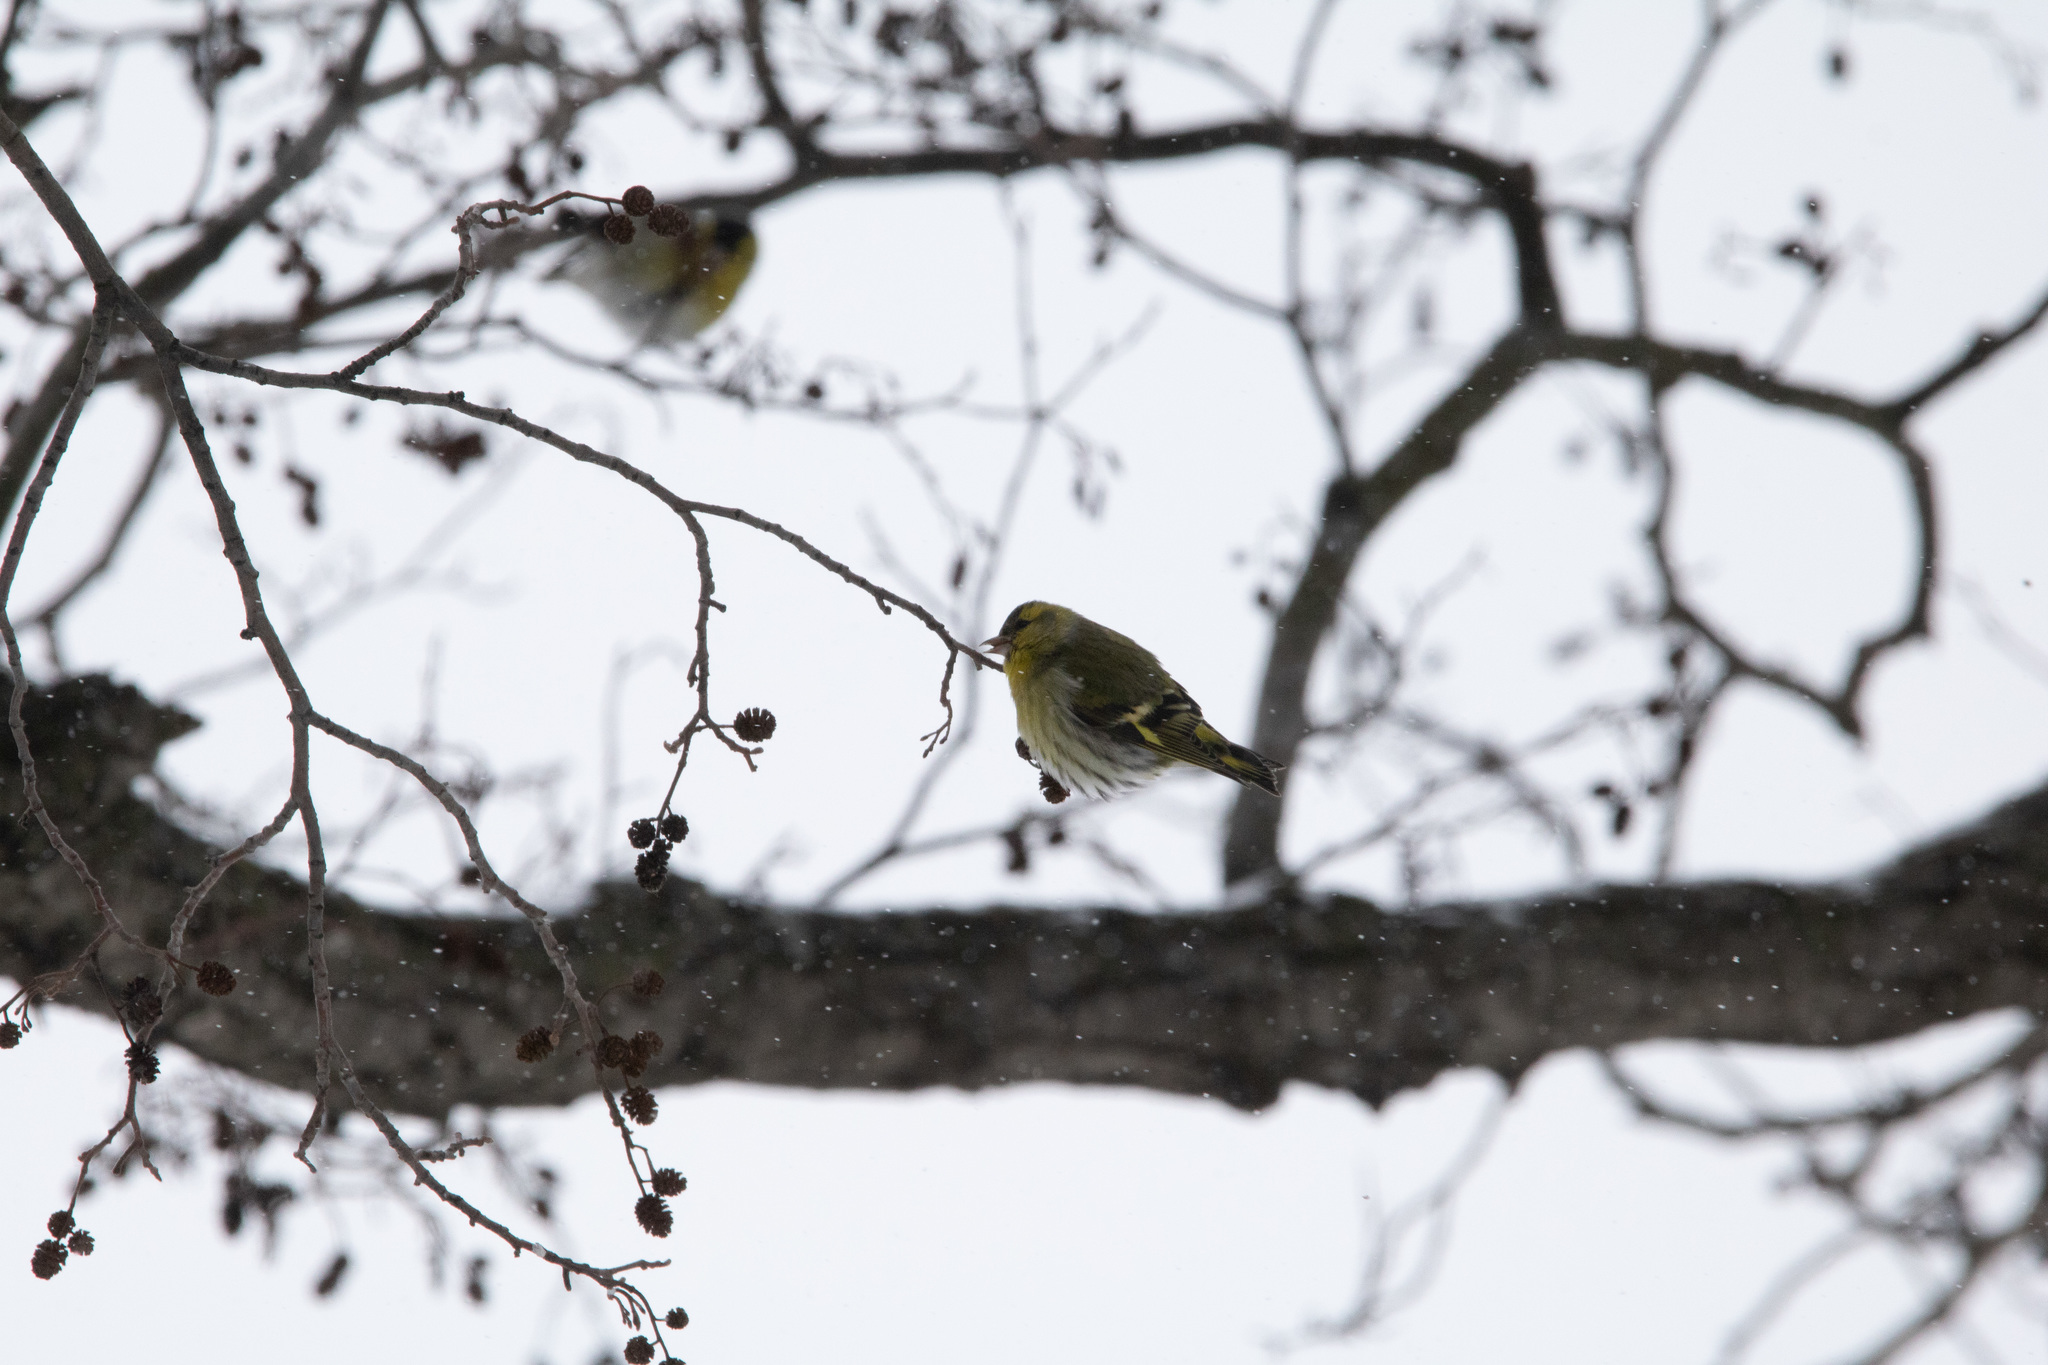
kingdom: Animalia
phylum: Chordata
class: Aves
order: Passeriformes
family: Fringillidae
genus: Spinus
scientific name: Spinus spinus
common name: Eurasian siskin
